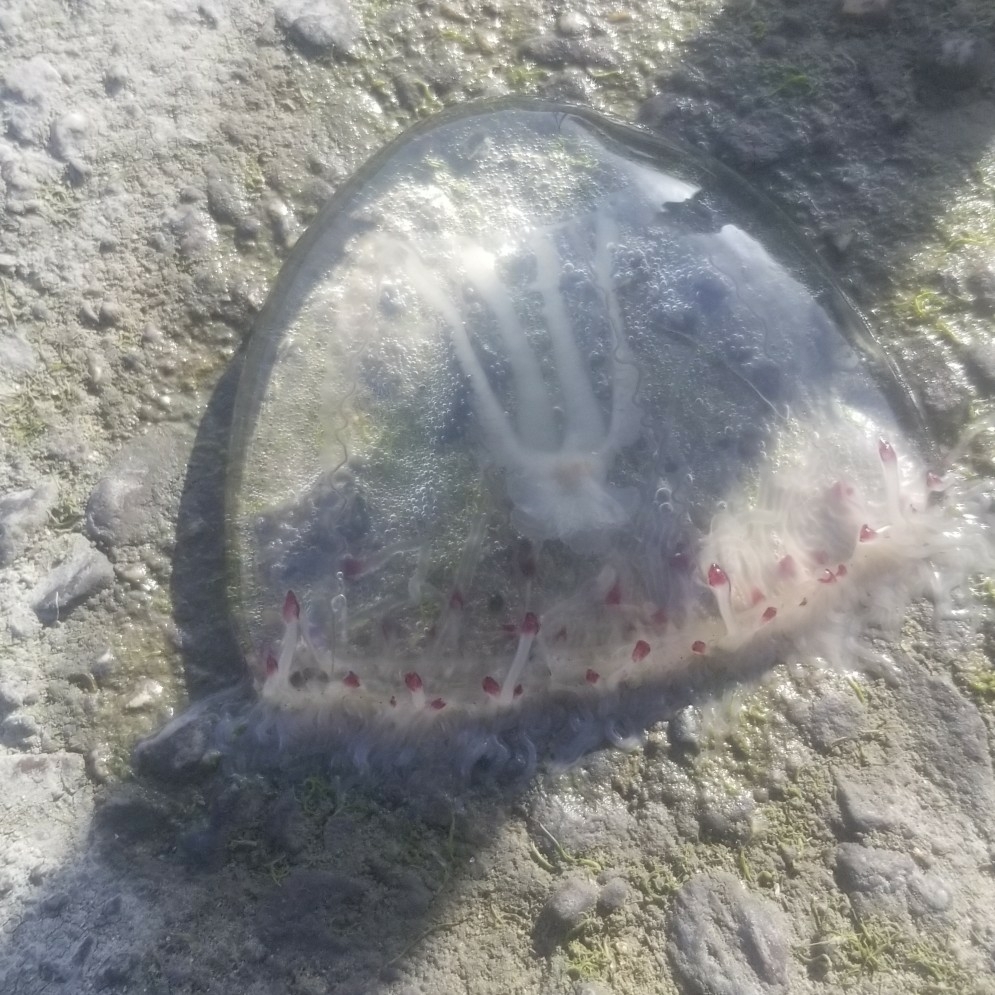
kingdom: Animalia
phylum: Cnidaria
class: Hydrozoa
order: Anthoathecata
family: Corynidae
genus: Scrippsia
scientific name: Scrippsia pacifica
